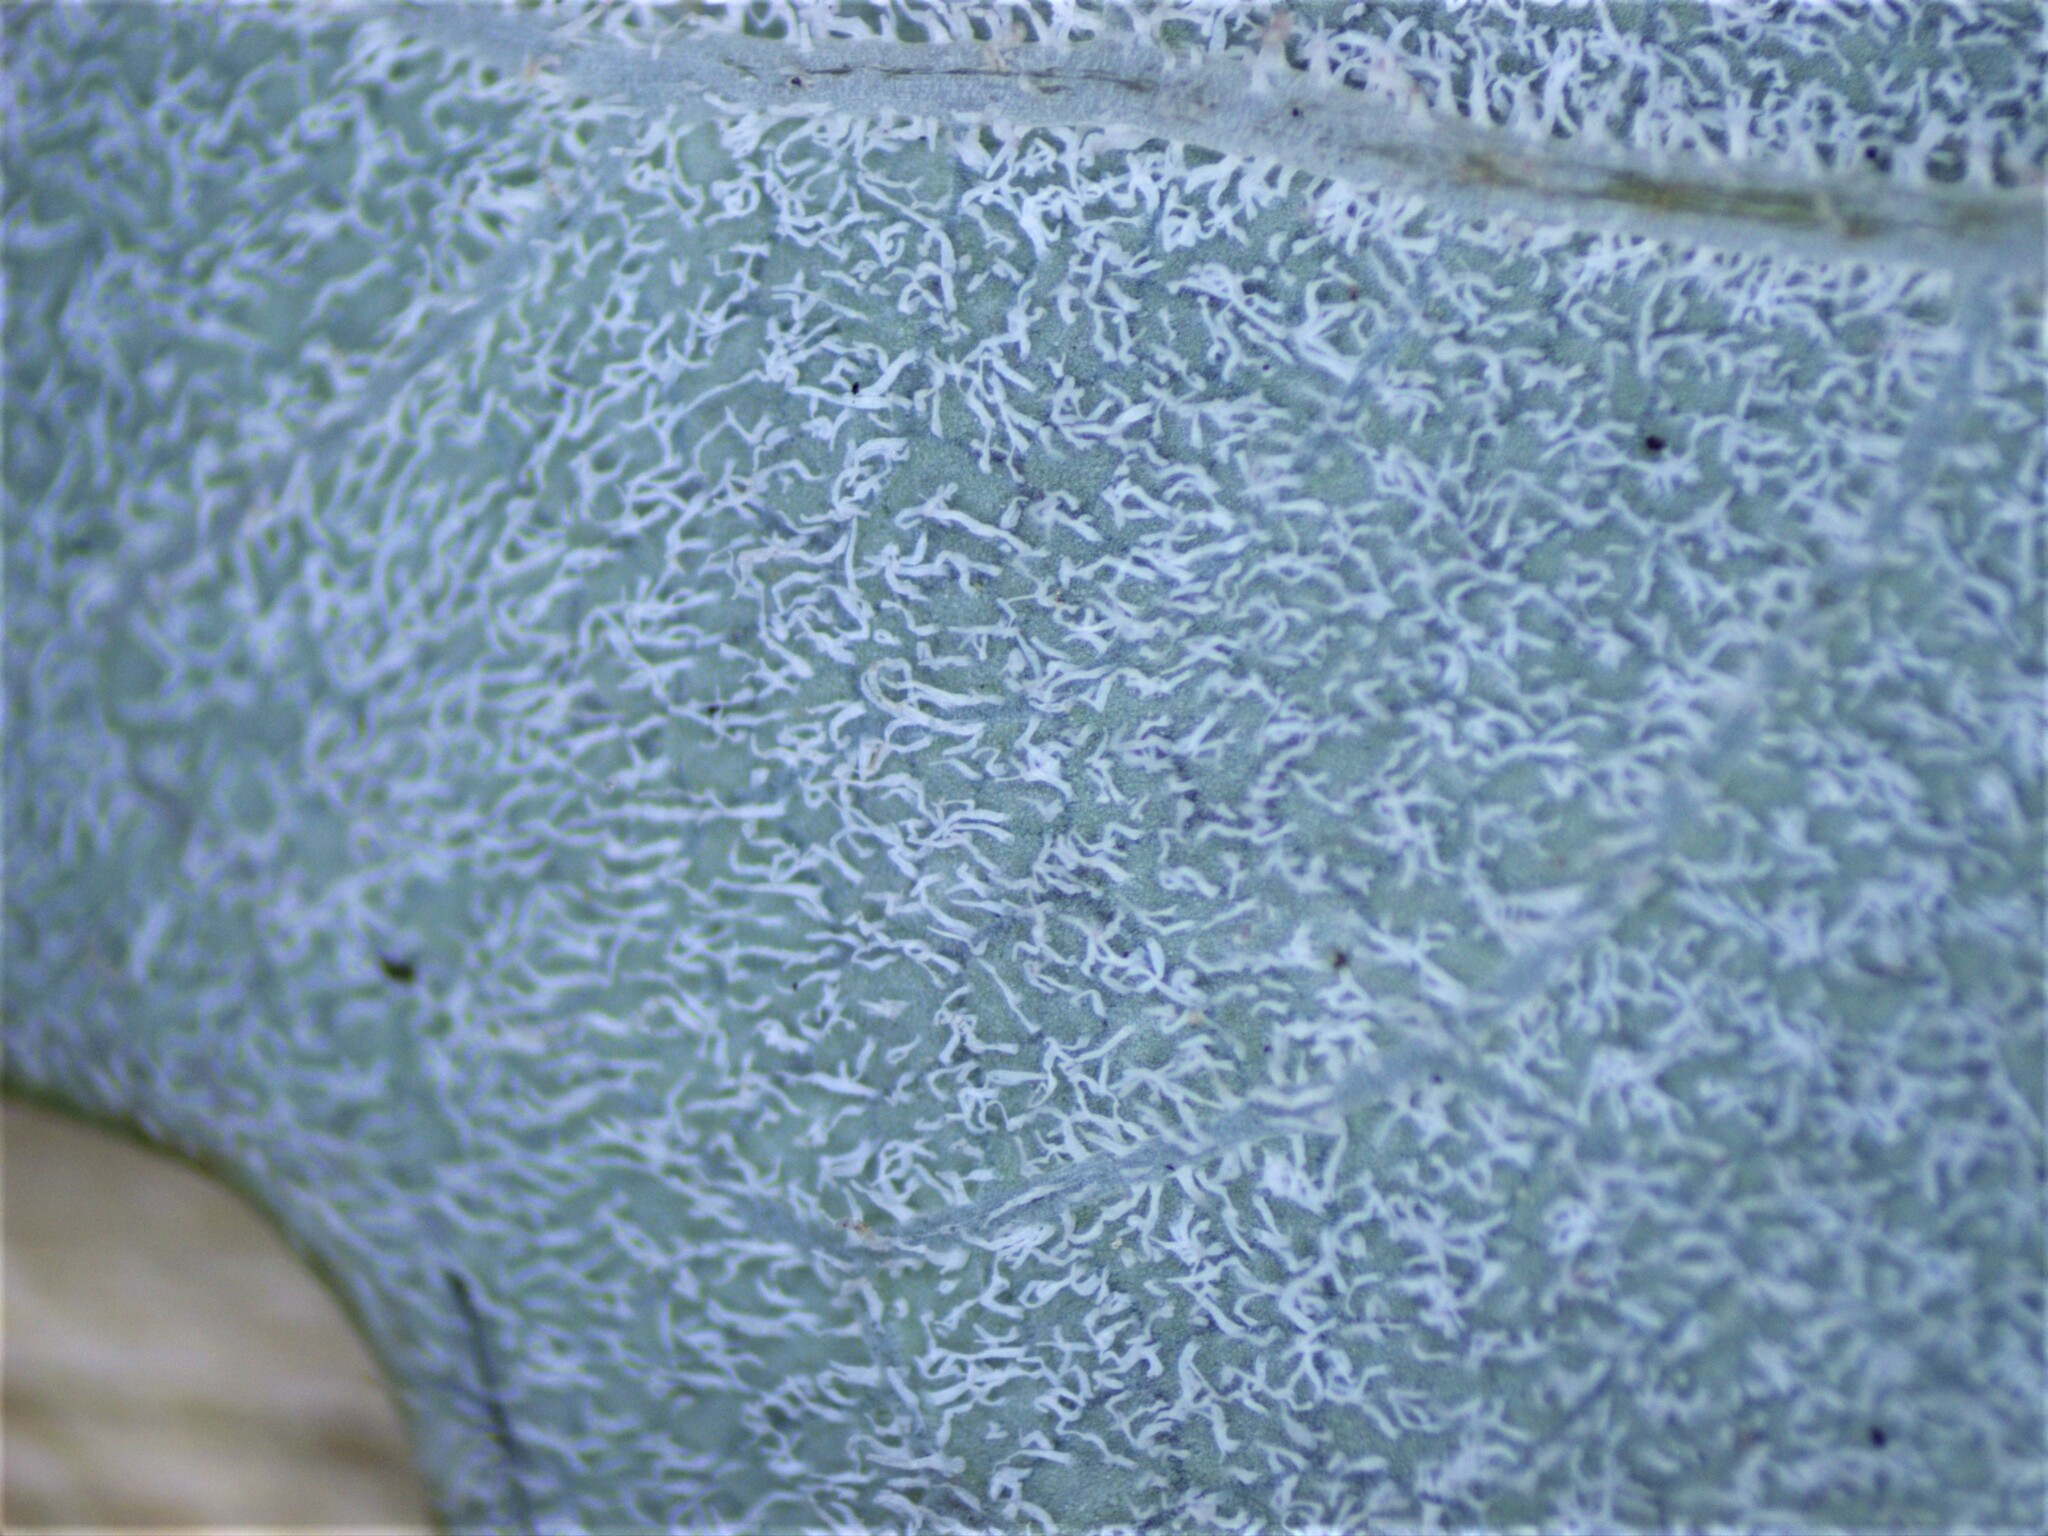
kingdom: Plantae
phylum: Tracheophyta
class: Magnoliopsida
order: Ranunculales
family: Papaveraceae
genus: Macleaya
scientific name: Macleaya cordata
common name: Plume poppy
